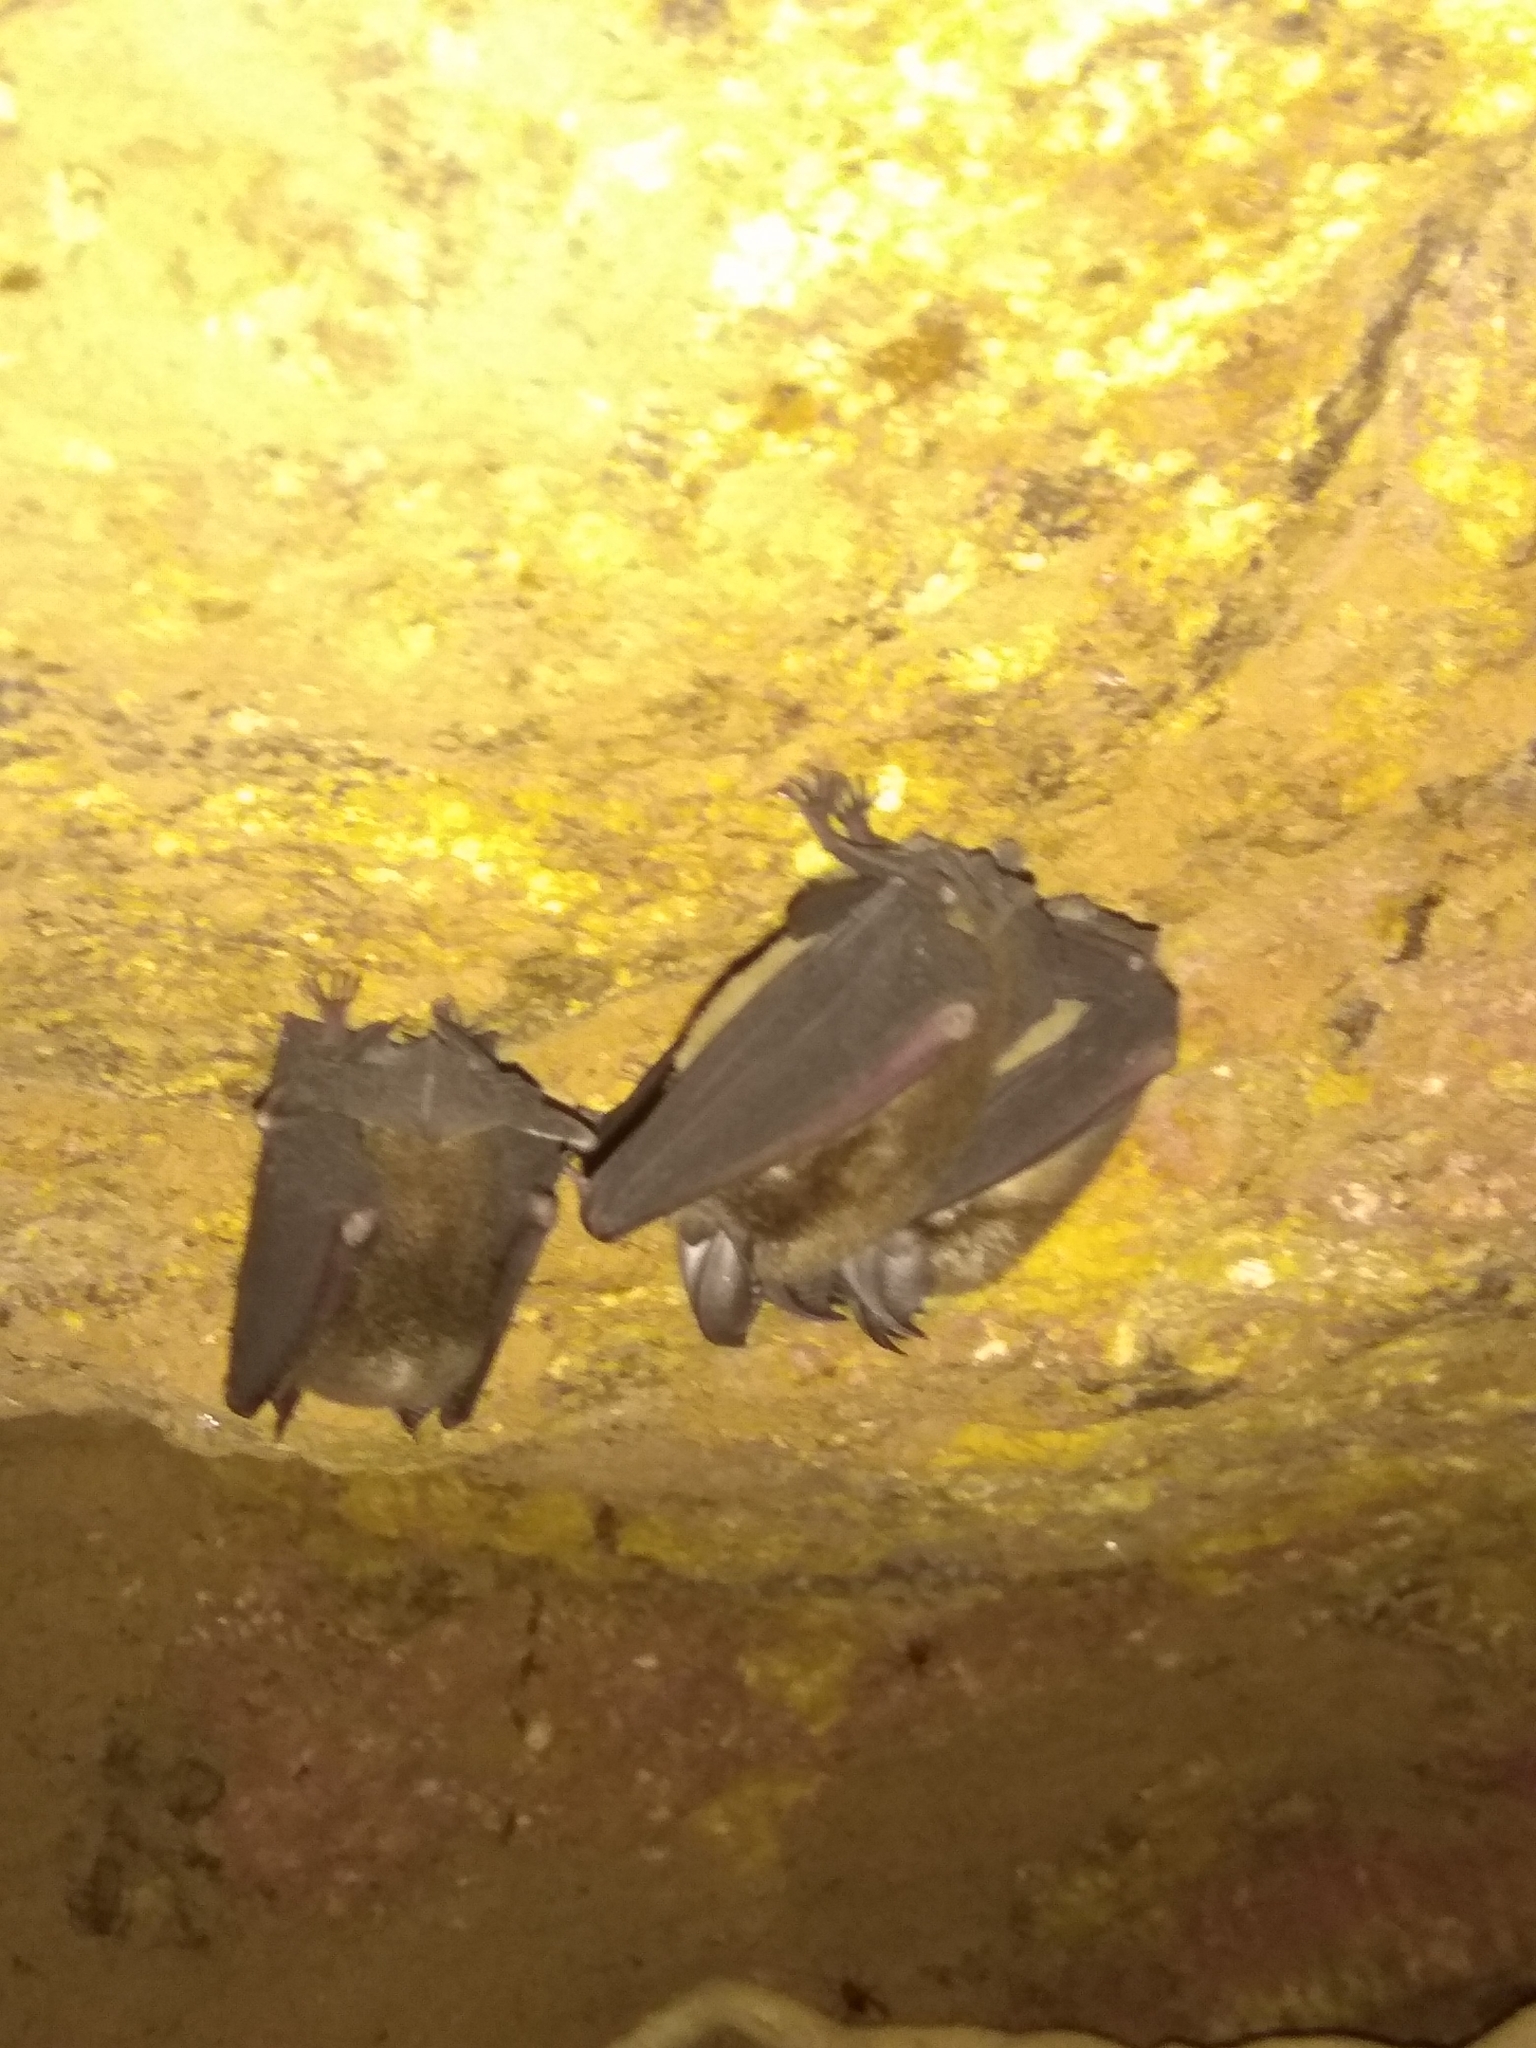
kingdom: Animalia
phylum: Chordata
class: Mammalia
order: Chiroptera
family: Rhinolophidae
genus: Rhinolophus
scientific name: Rhinolophus pusillus
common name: Least horseshoe bat
